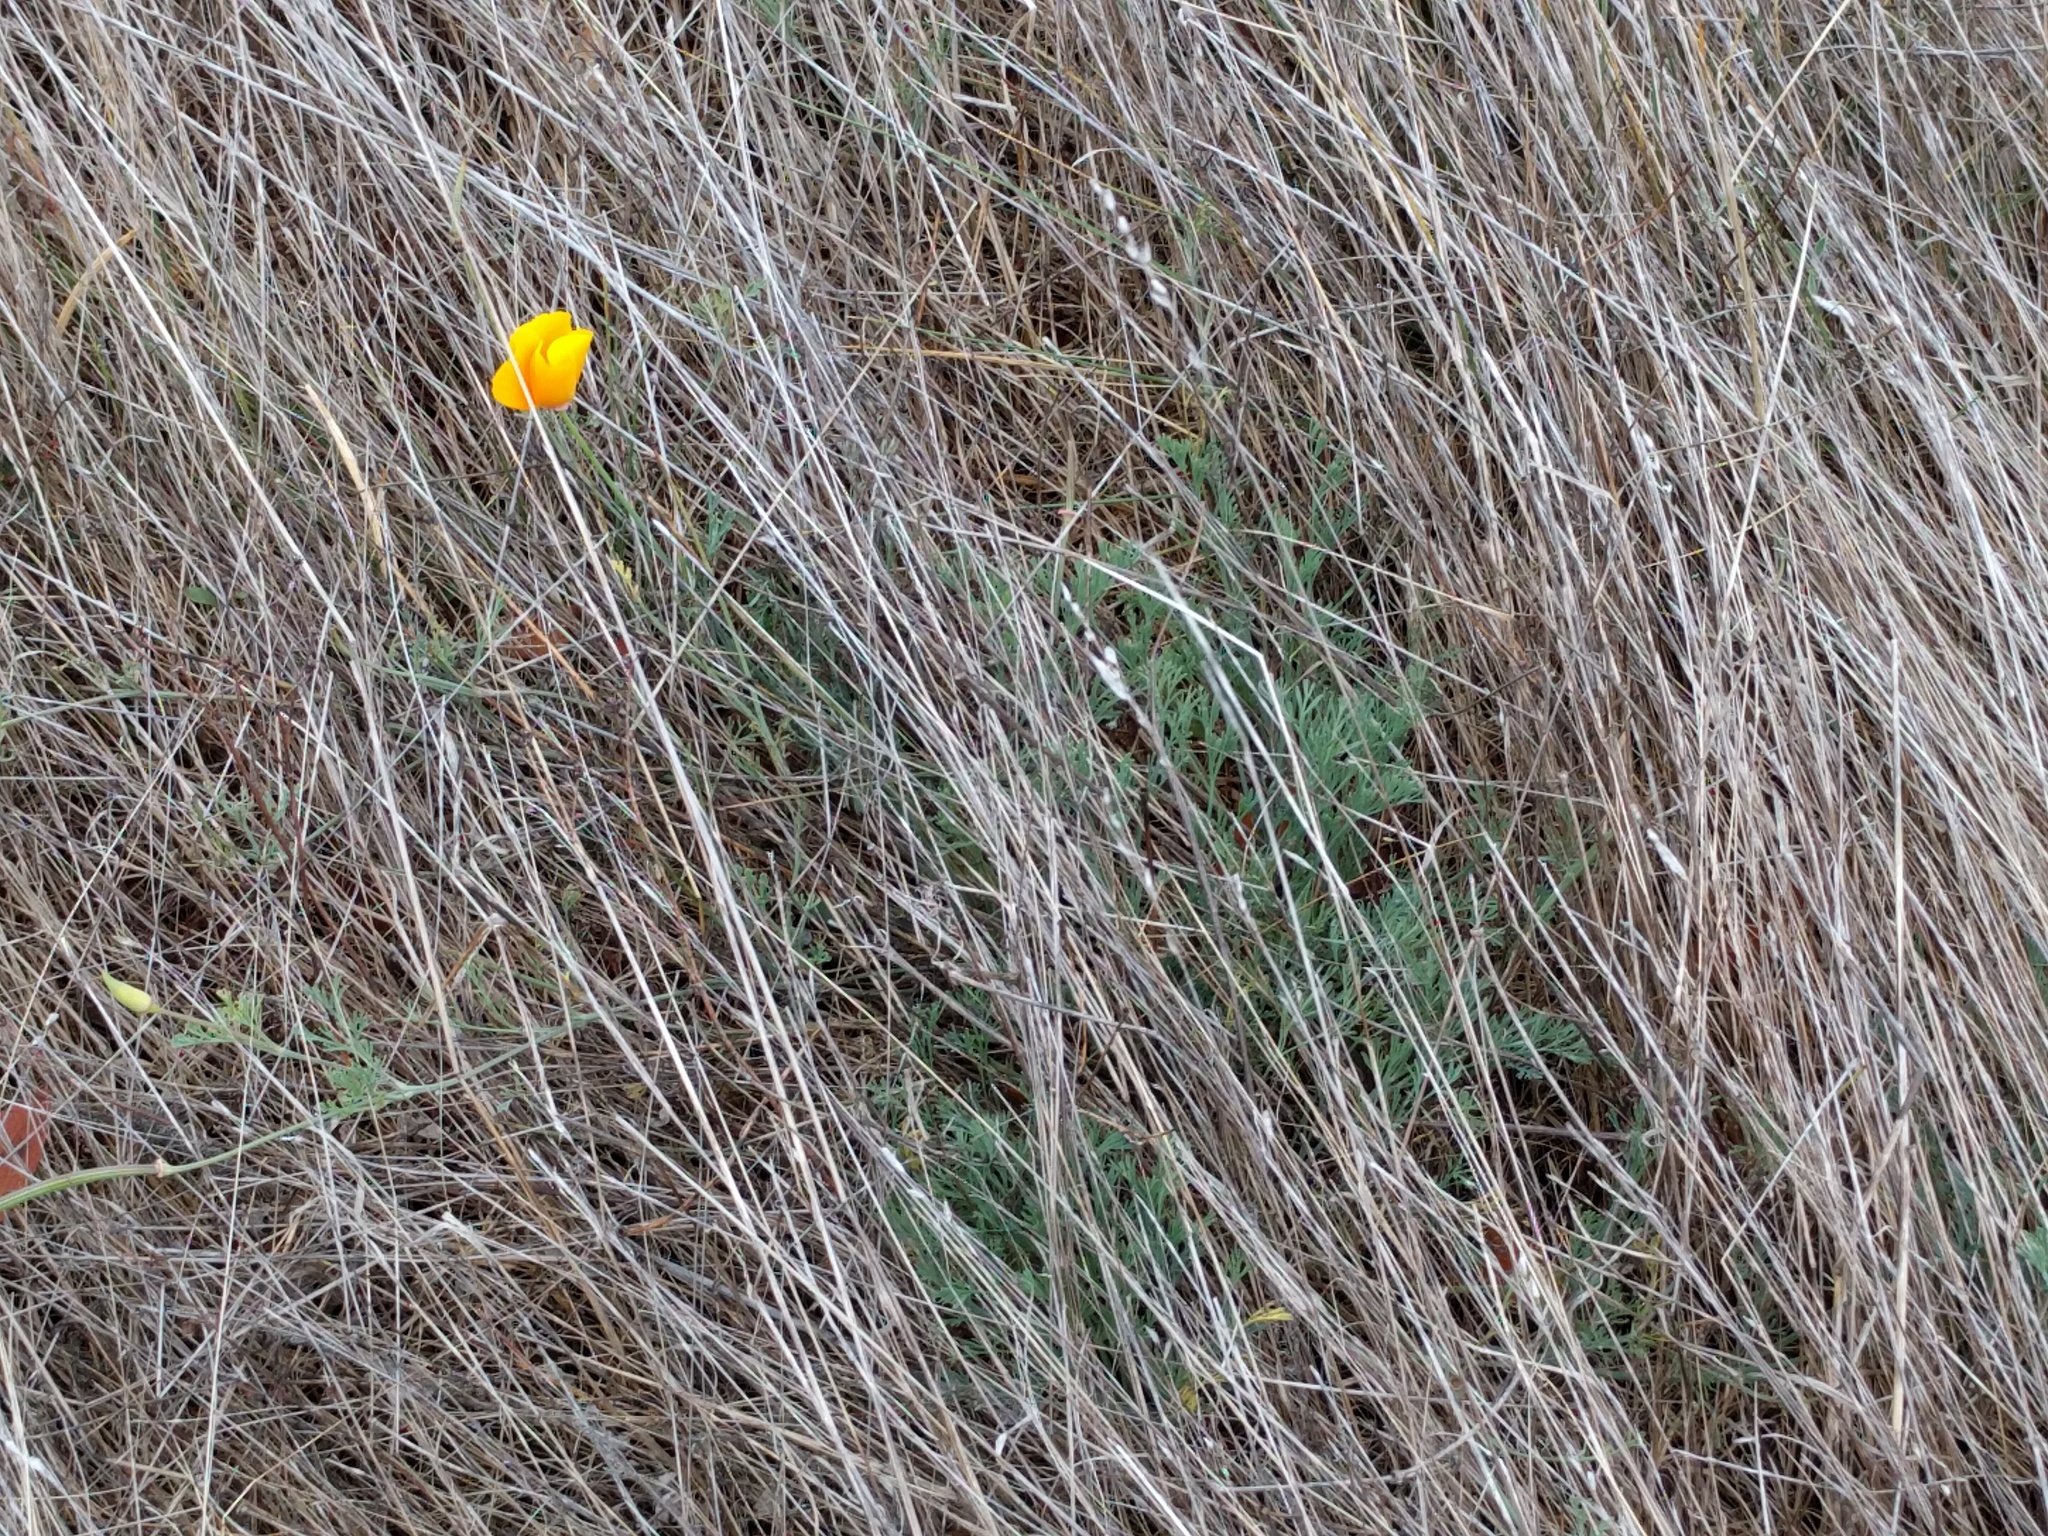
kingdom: Plantae
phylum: Tracheophyta
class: Magnoliopsida
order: Ranunculales
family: Papaveraceae
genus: Eschscholzia
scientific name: Eschscholzia californica
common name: California poppy
